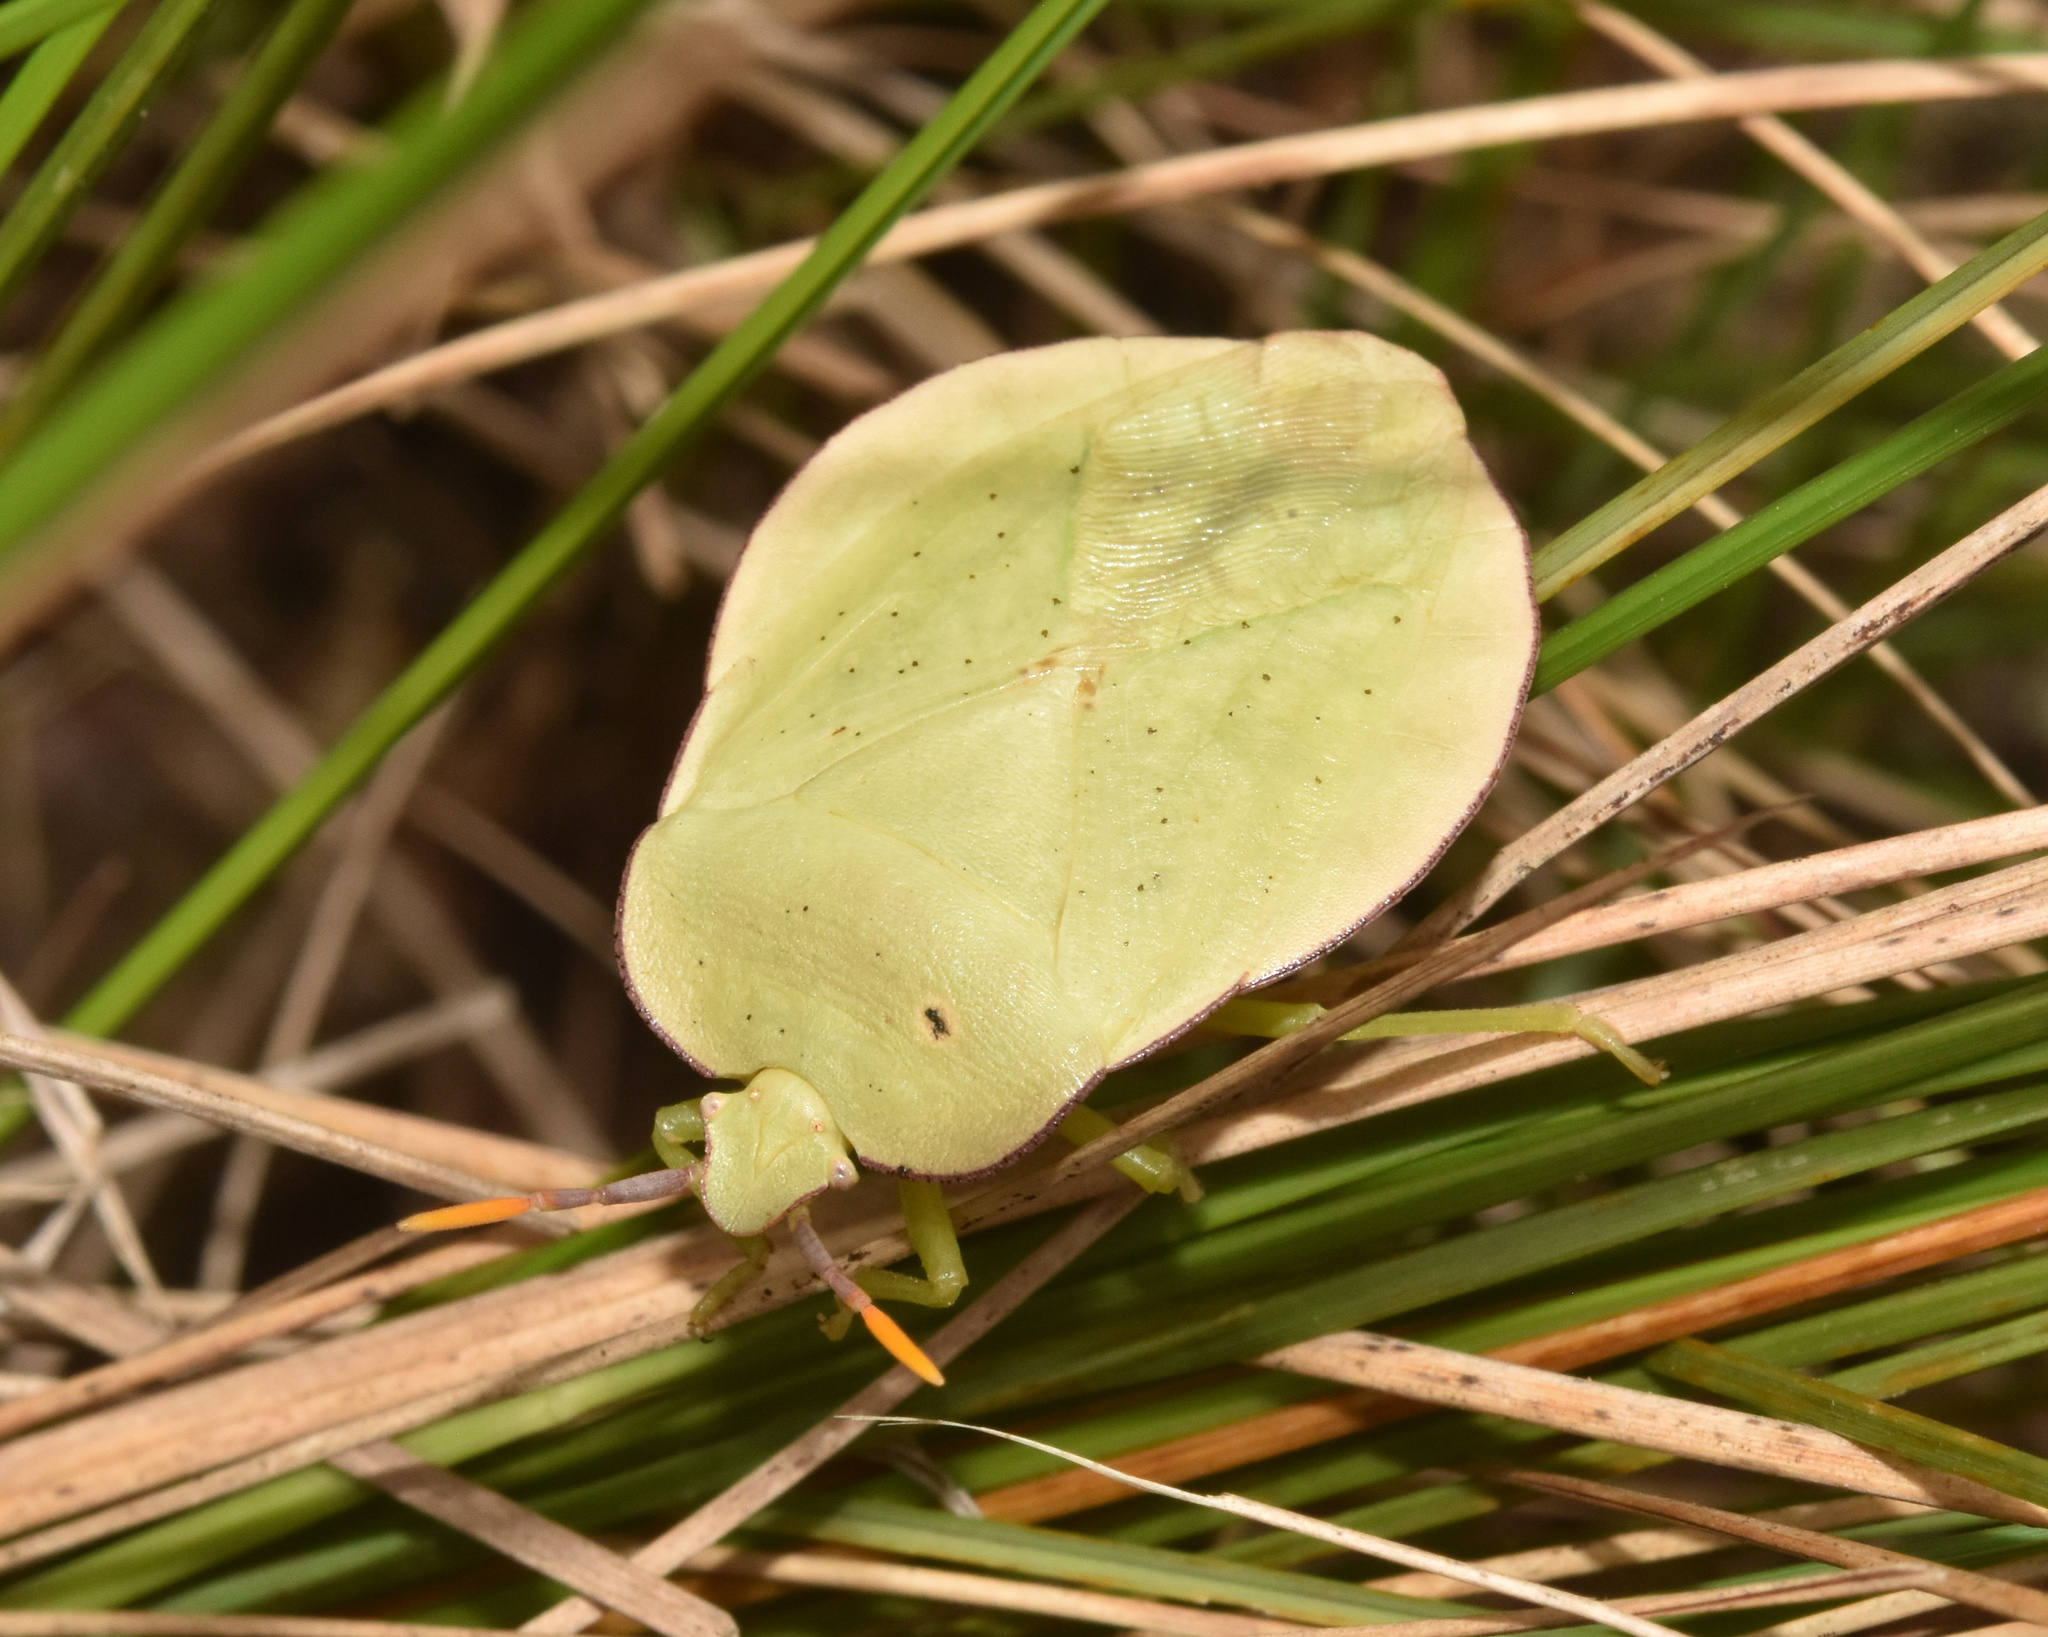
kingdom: Animalia
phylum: Arthropoda
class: Insecta
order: Hemiptera
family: Tessaratomidae
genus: Natalicola
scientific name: Natalicola pallida
